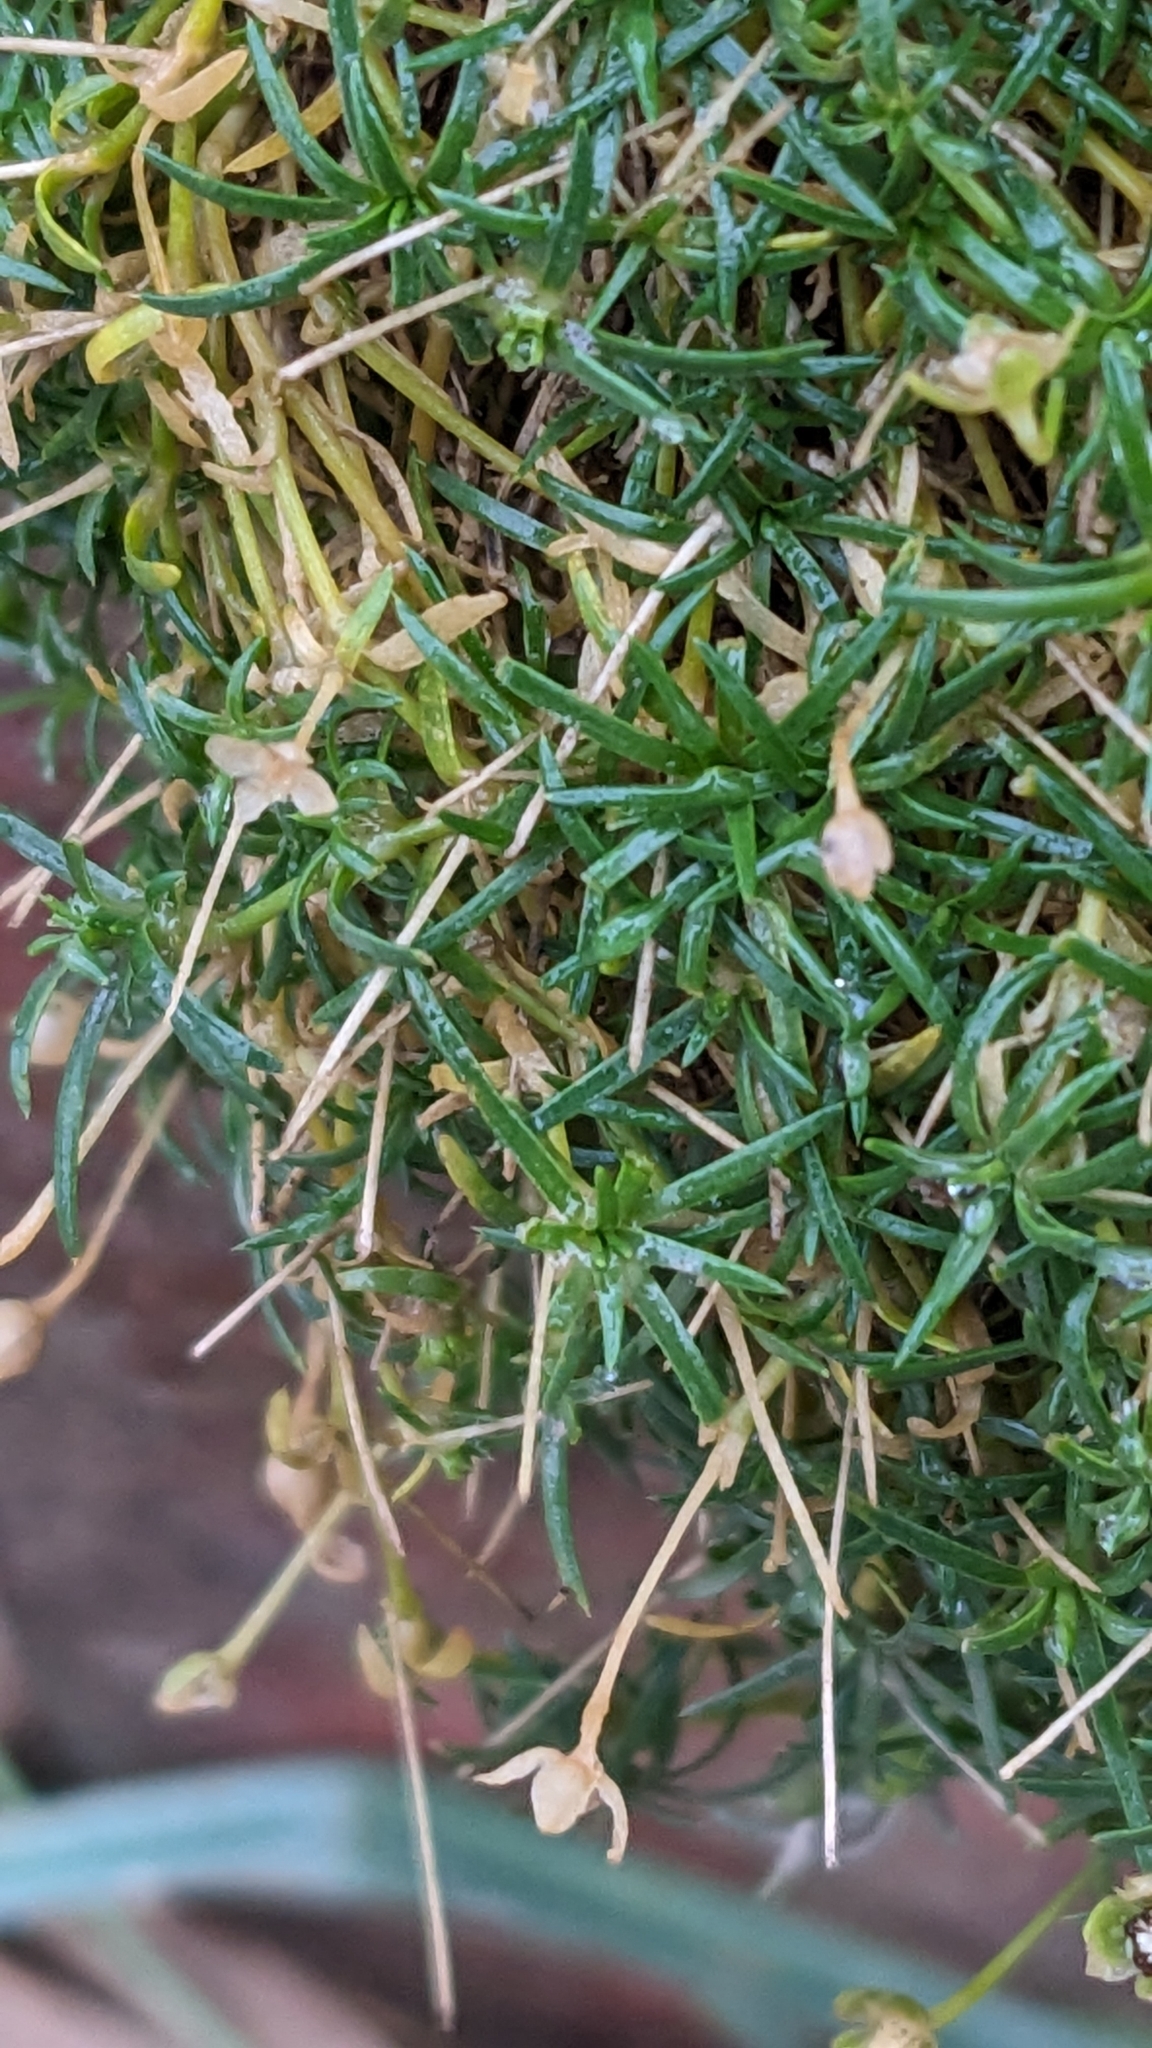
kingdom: Plantae
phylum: Tracheophyta
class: Magnoliopsida
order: Caryophyllales
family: Caryophyllaceae
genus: Sagina
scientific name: Sagina procumbens
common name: Procumbent pearlwort
